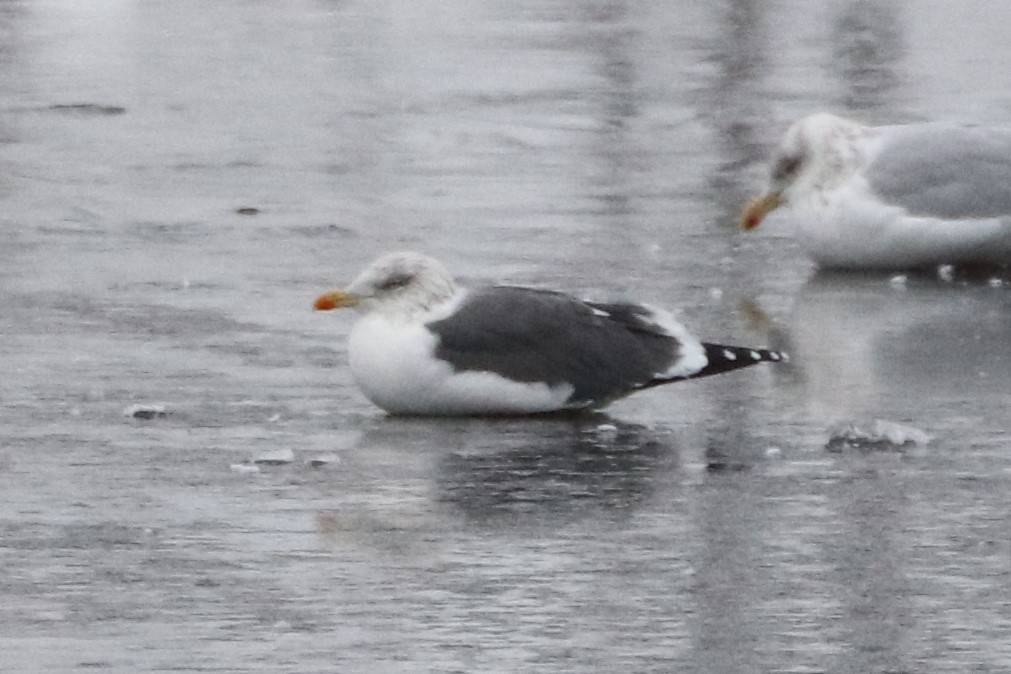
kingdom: Animalia
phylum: Chordata
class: Aves
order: Charadriiformes
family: Laridae
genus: Larus
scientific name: Larus fuscus
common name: Lesser black-backed gull
